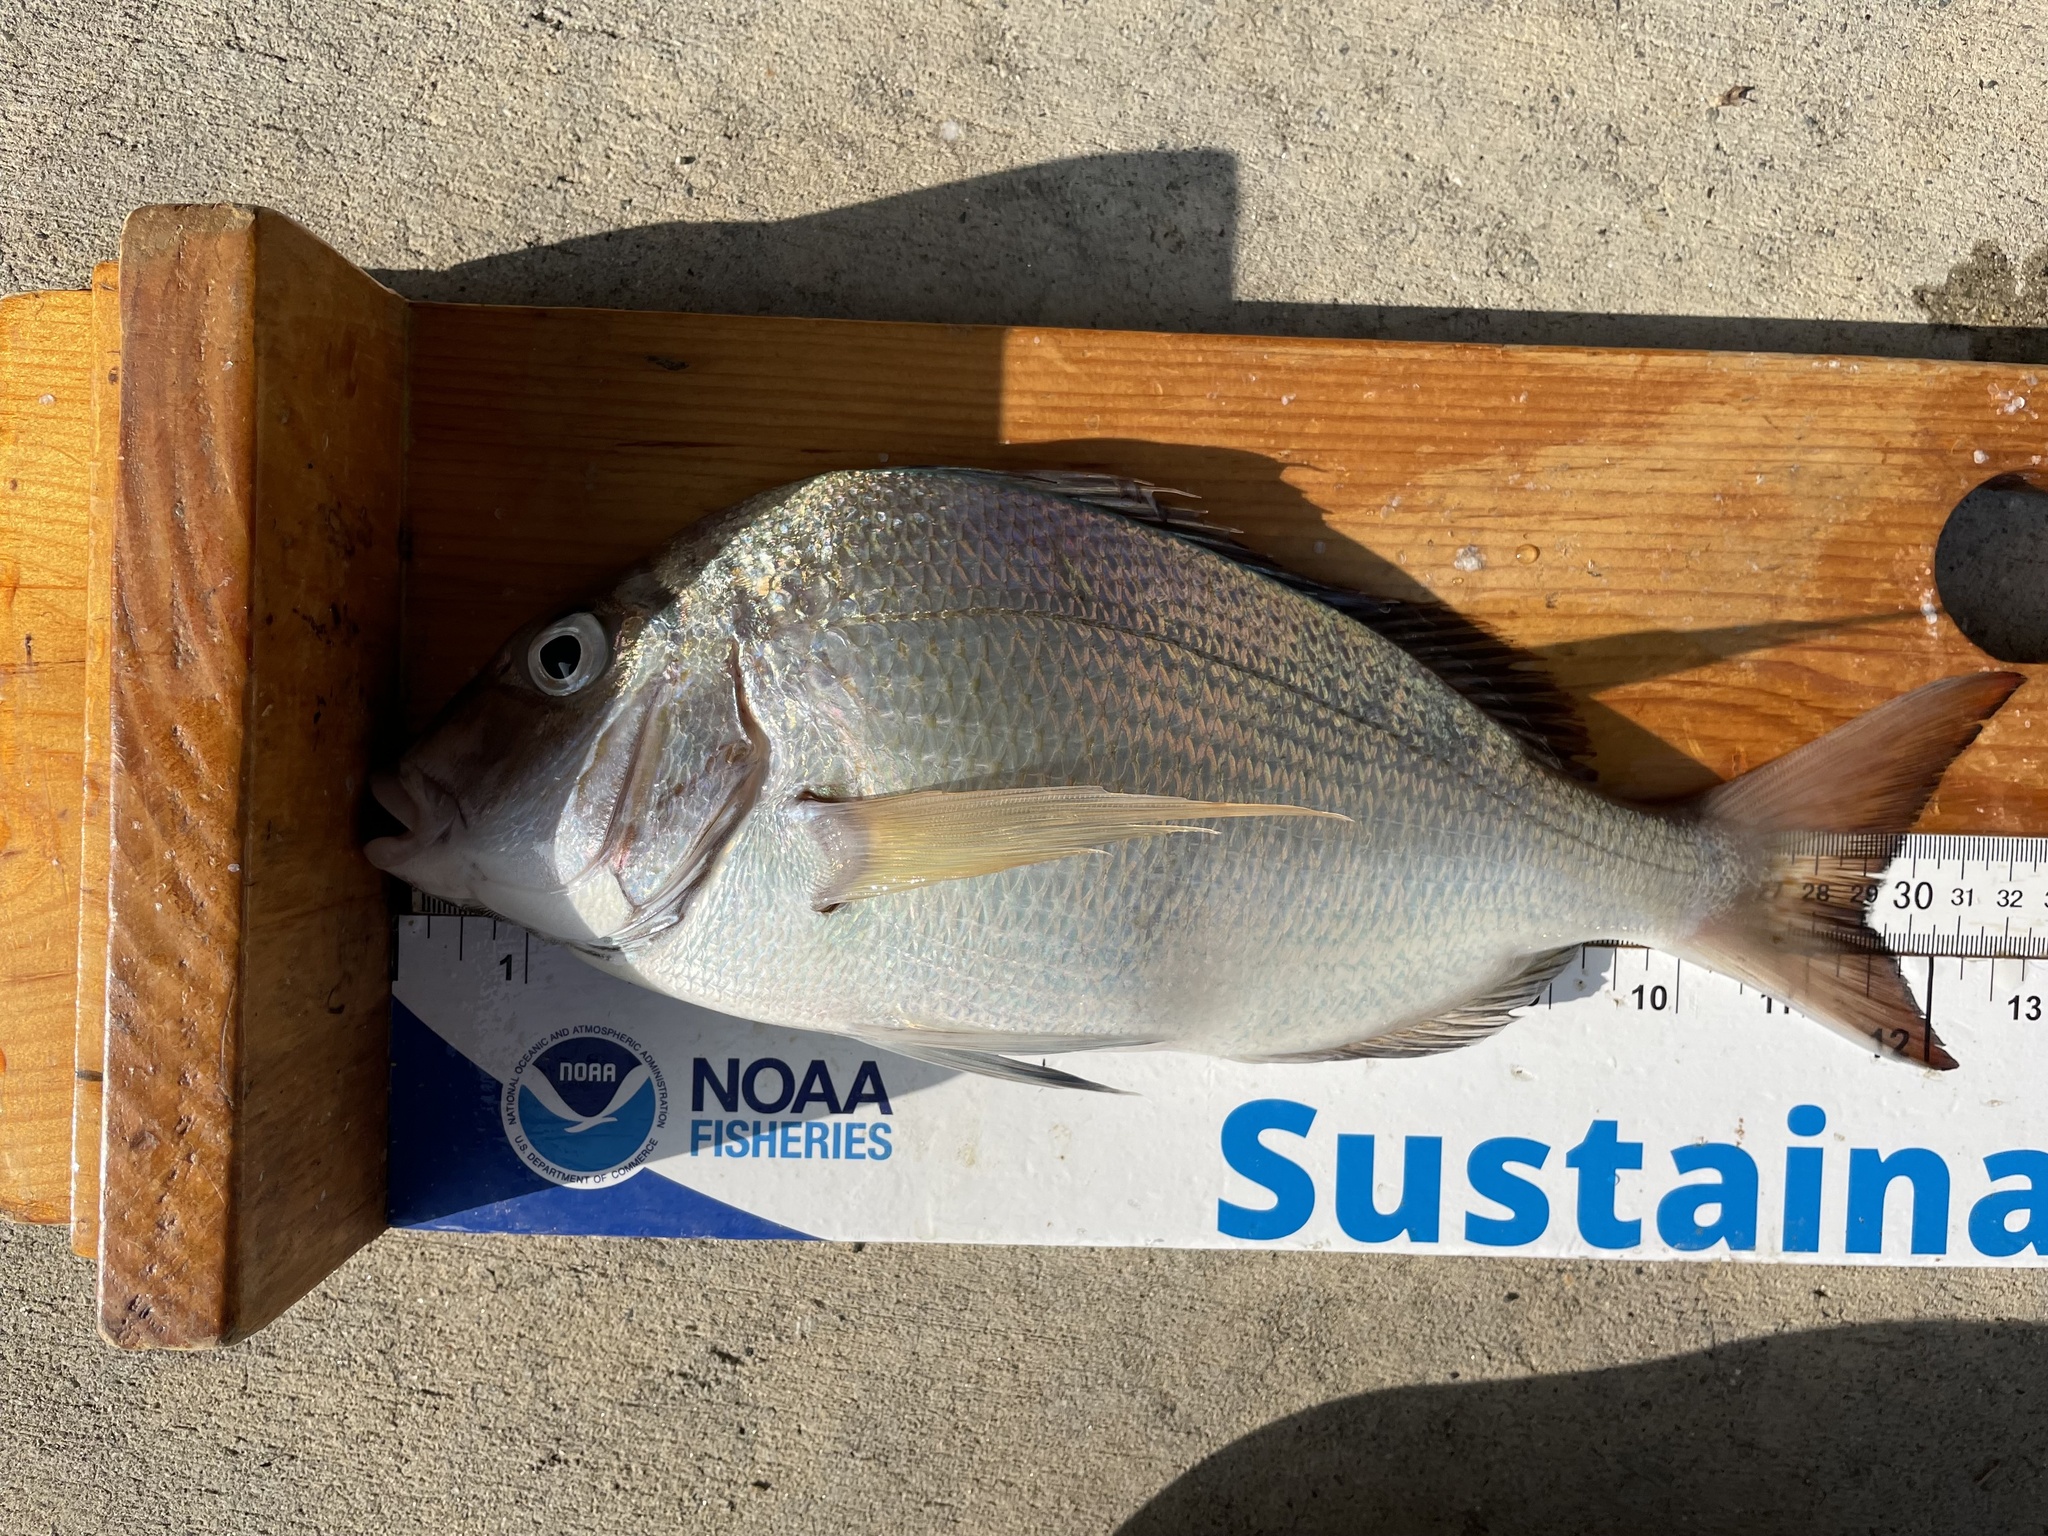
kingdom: Animalia
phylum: Chordata
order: Perciformes
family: Sparidae
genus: Stenotomus
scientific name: Stenotomus chrysops
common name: Scup
